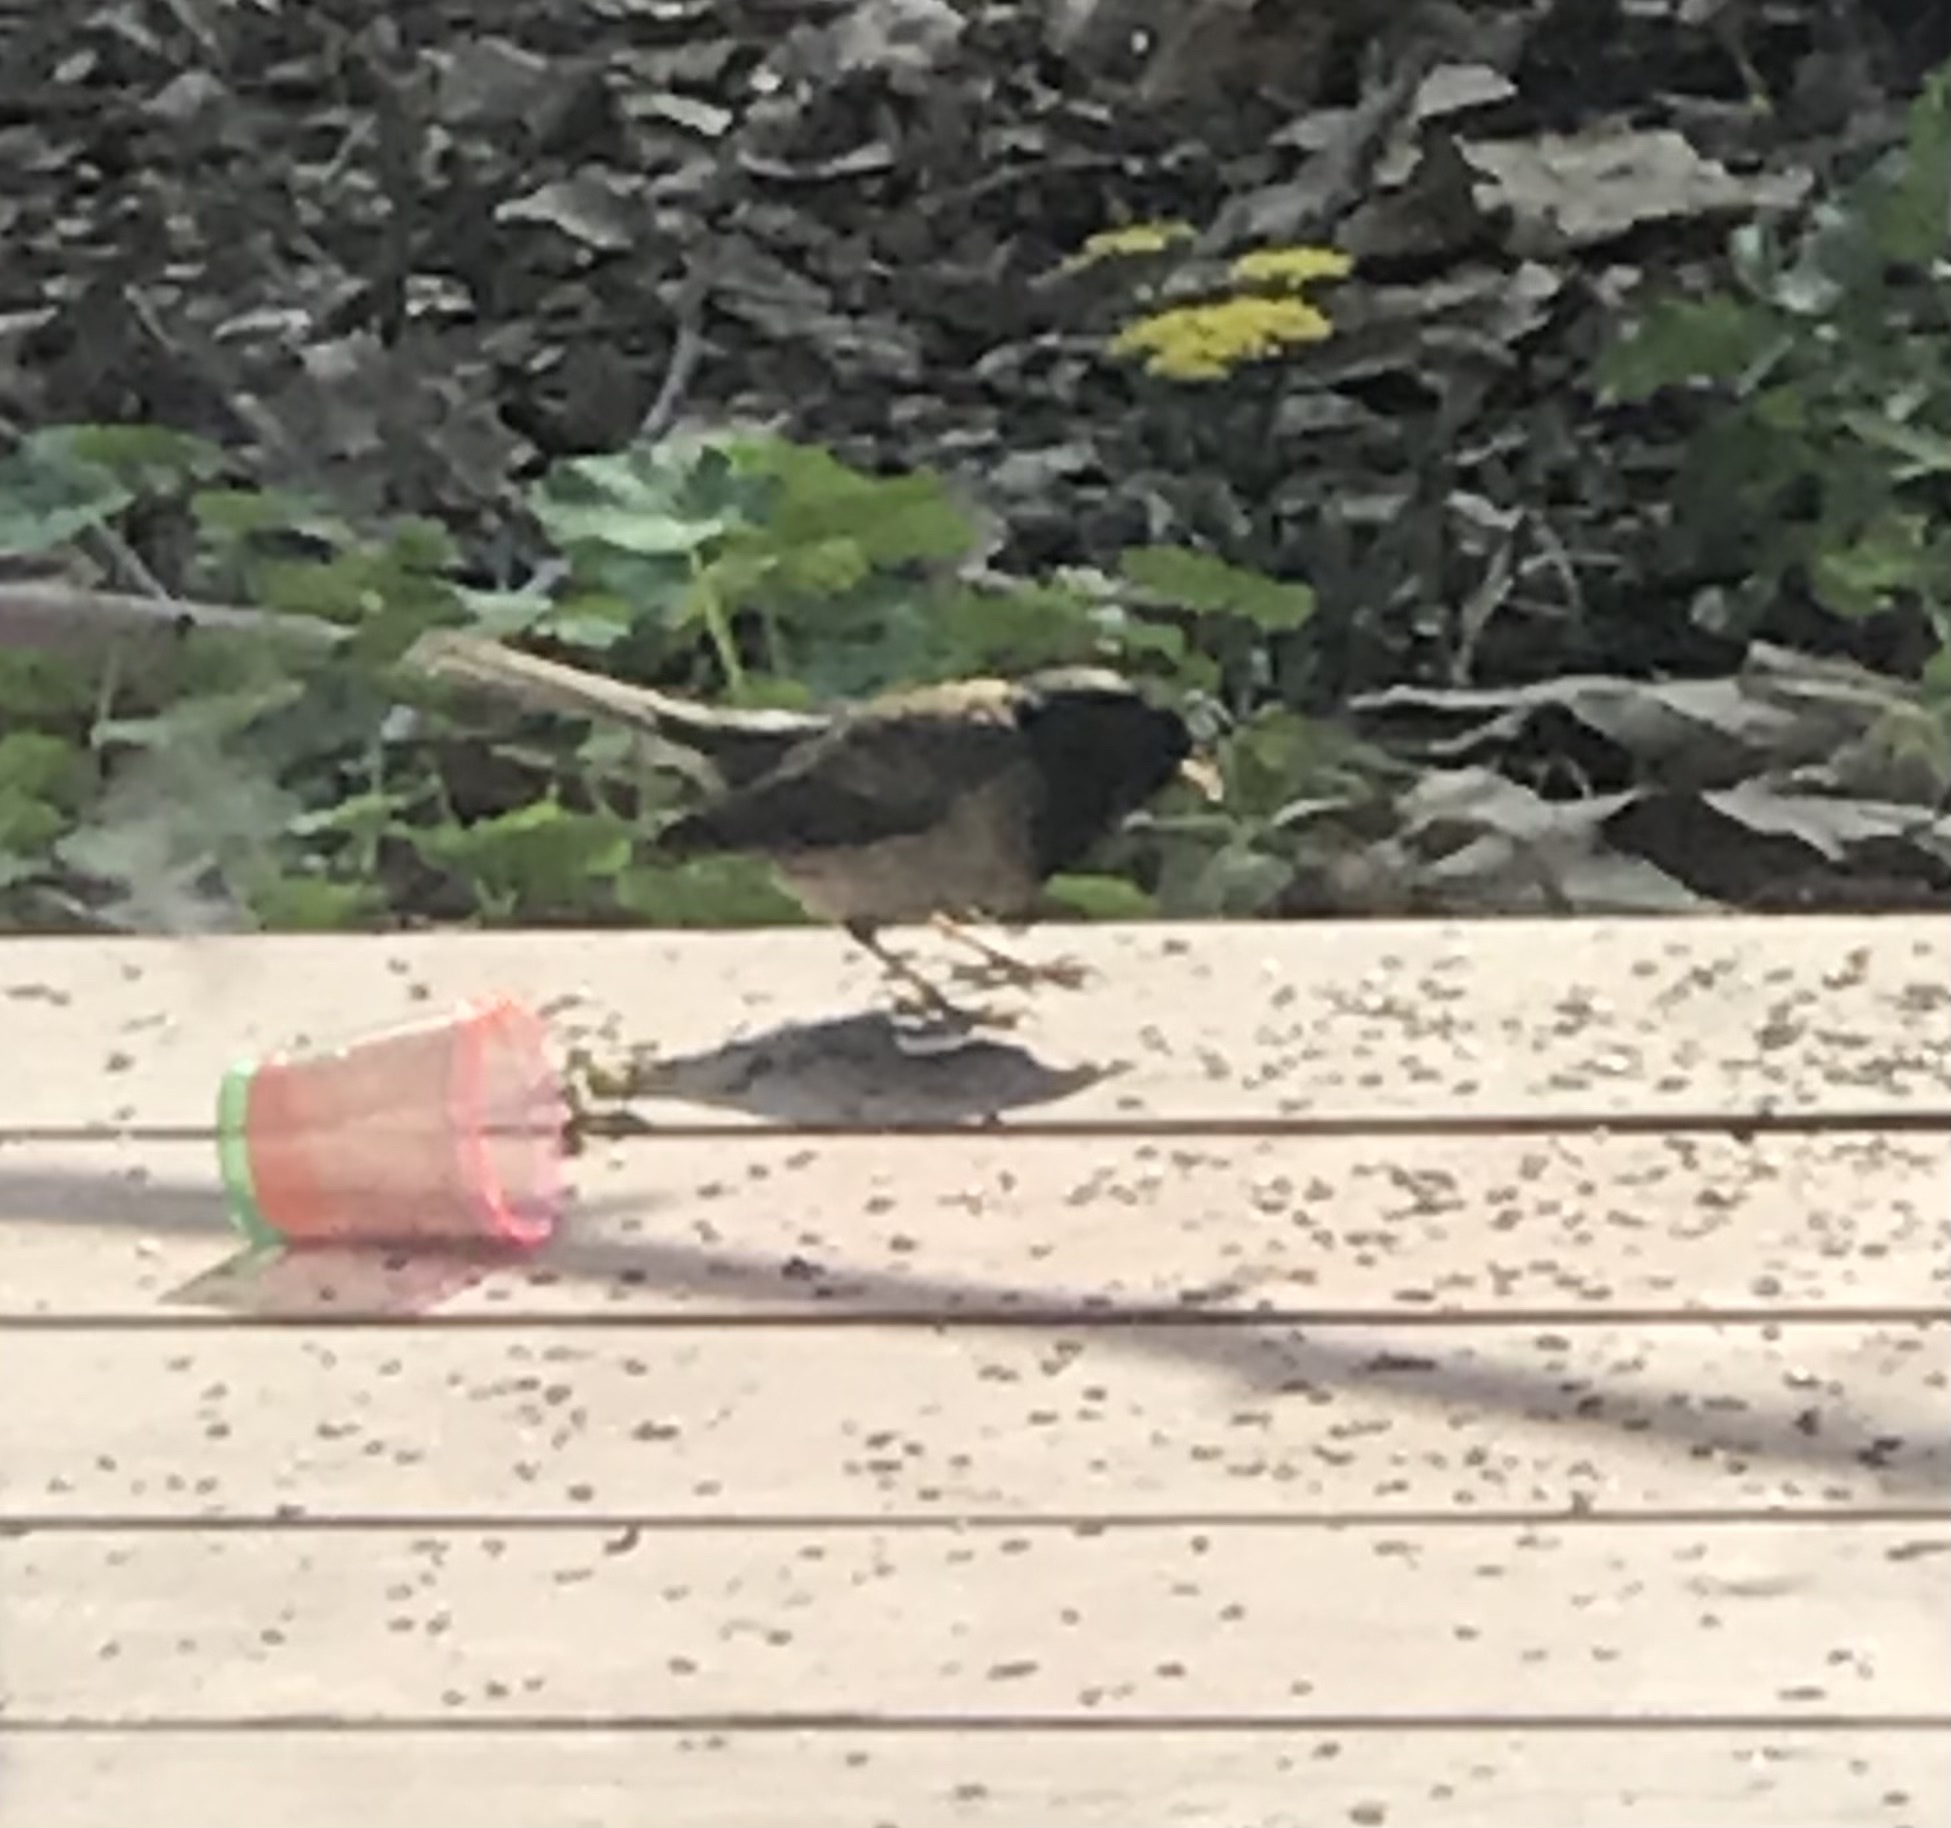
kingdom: Animalia
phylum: Chordata
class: Aves
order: Passeriformes
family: Passerellidae
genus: Junco
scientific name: Junco hyemalis
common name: Dark-eyed junco
